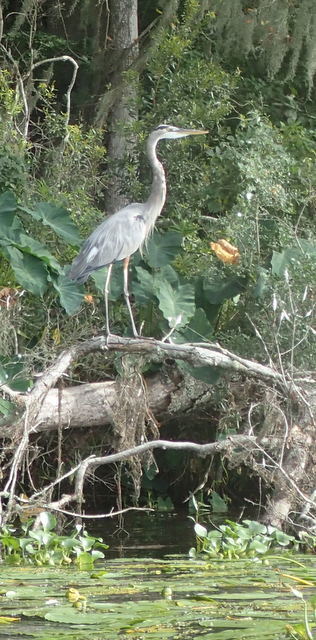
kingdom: Animalia
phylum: Chordata
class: Aves
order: Pelecaniformes
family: Ardeidae
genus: Ardea
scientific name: Ardea herodias
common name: Great blue heron
